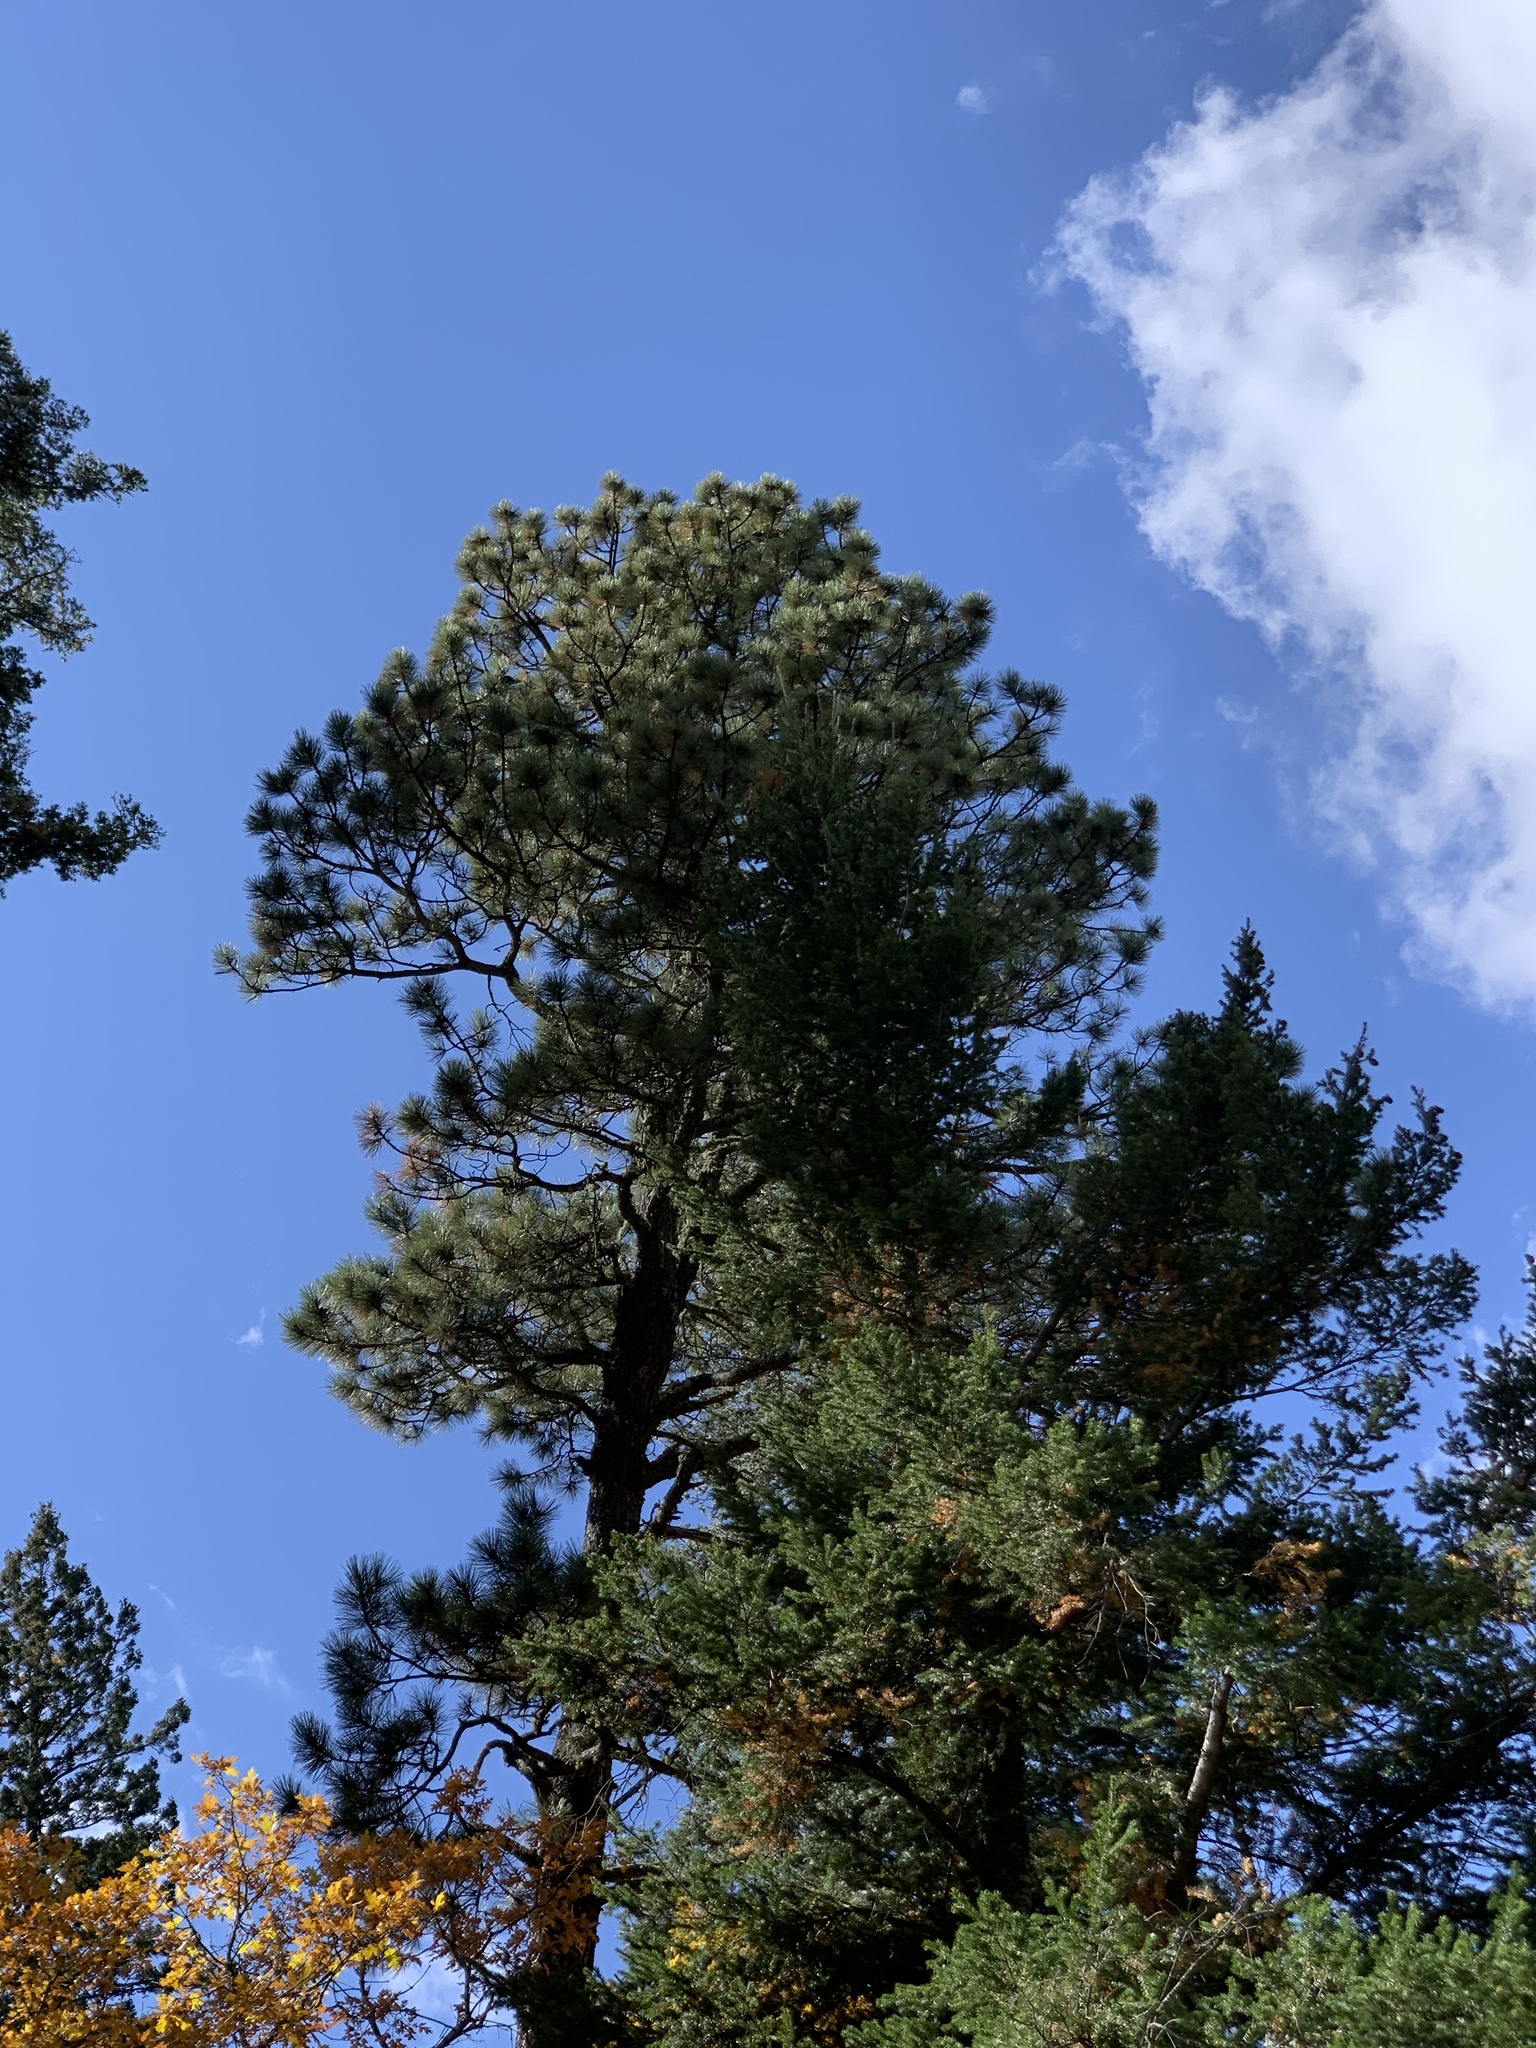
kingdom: Plantae
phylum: Tracheophyta
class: Pinopsida
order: Pinales
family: Pinaceae
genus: Pinus
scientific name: Pinus ponderosa
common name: Western yellow-pine
